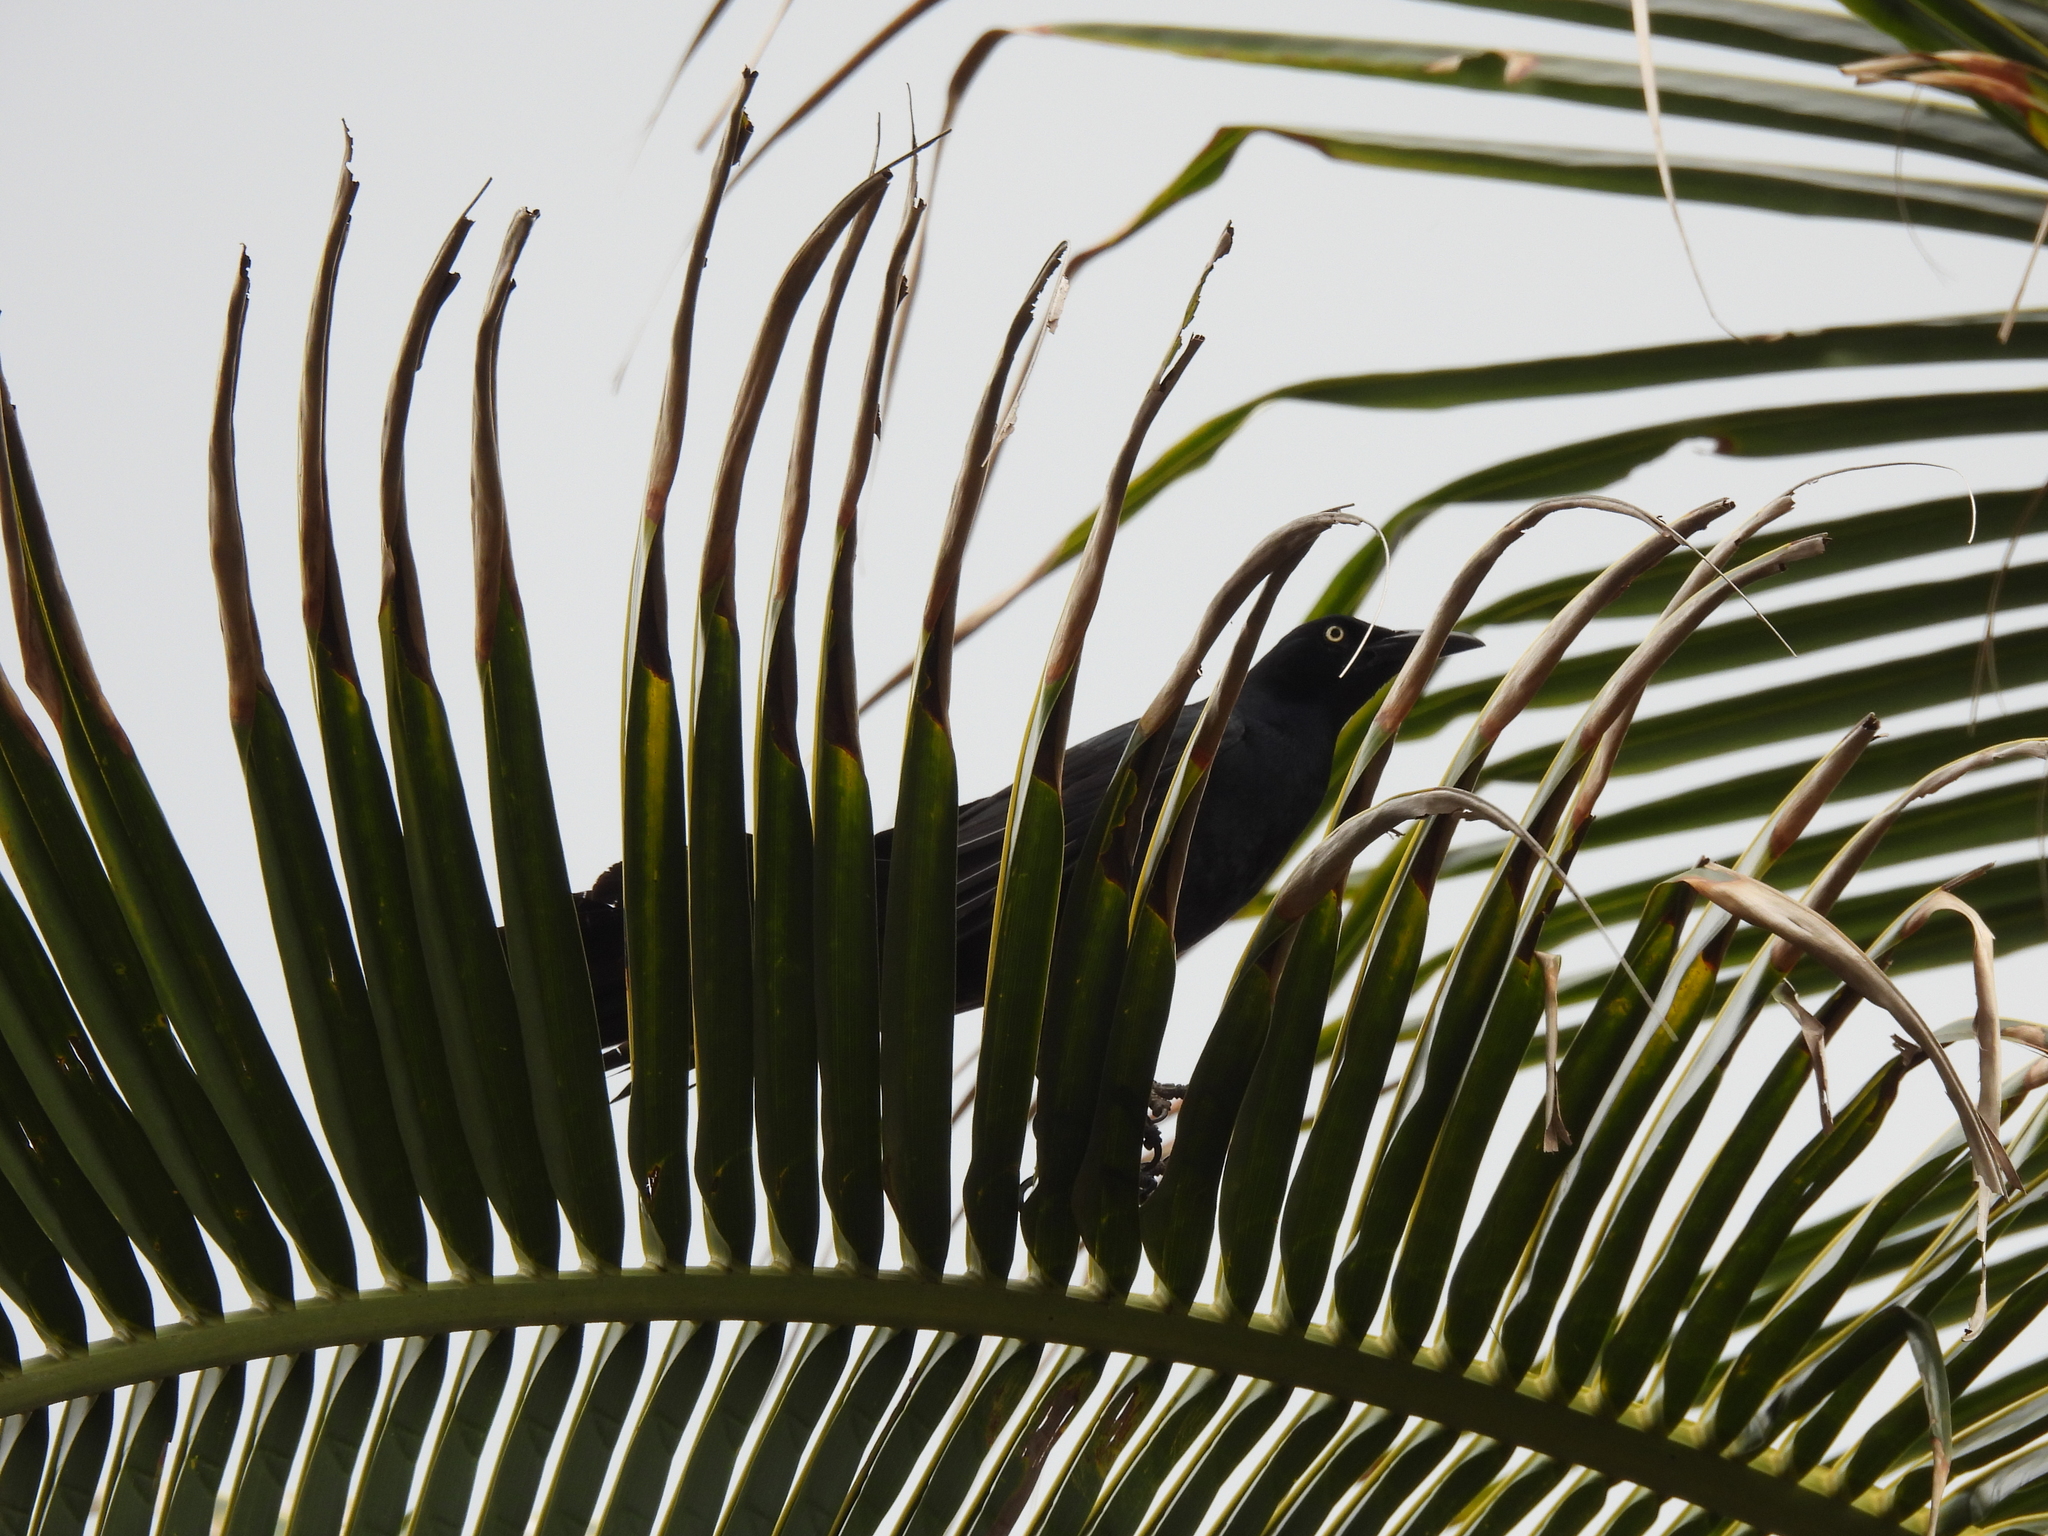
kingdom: Animalia
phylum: Chordata
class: Aves
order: Passeriformes
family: Icteridae
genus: Quiscalus
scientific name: Quiscalus mexicanus
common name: Great-tailed grackle
